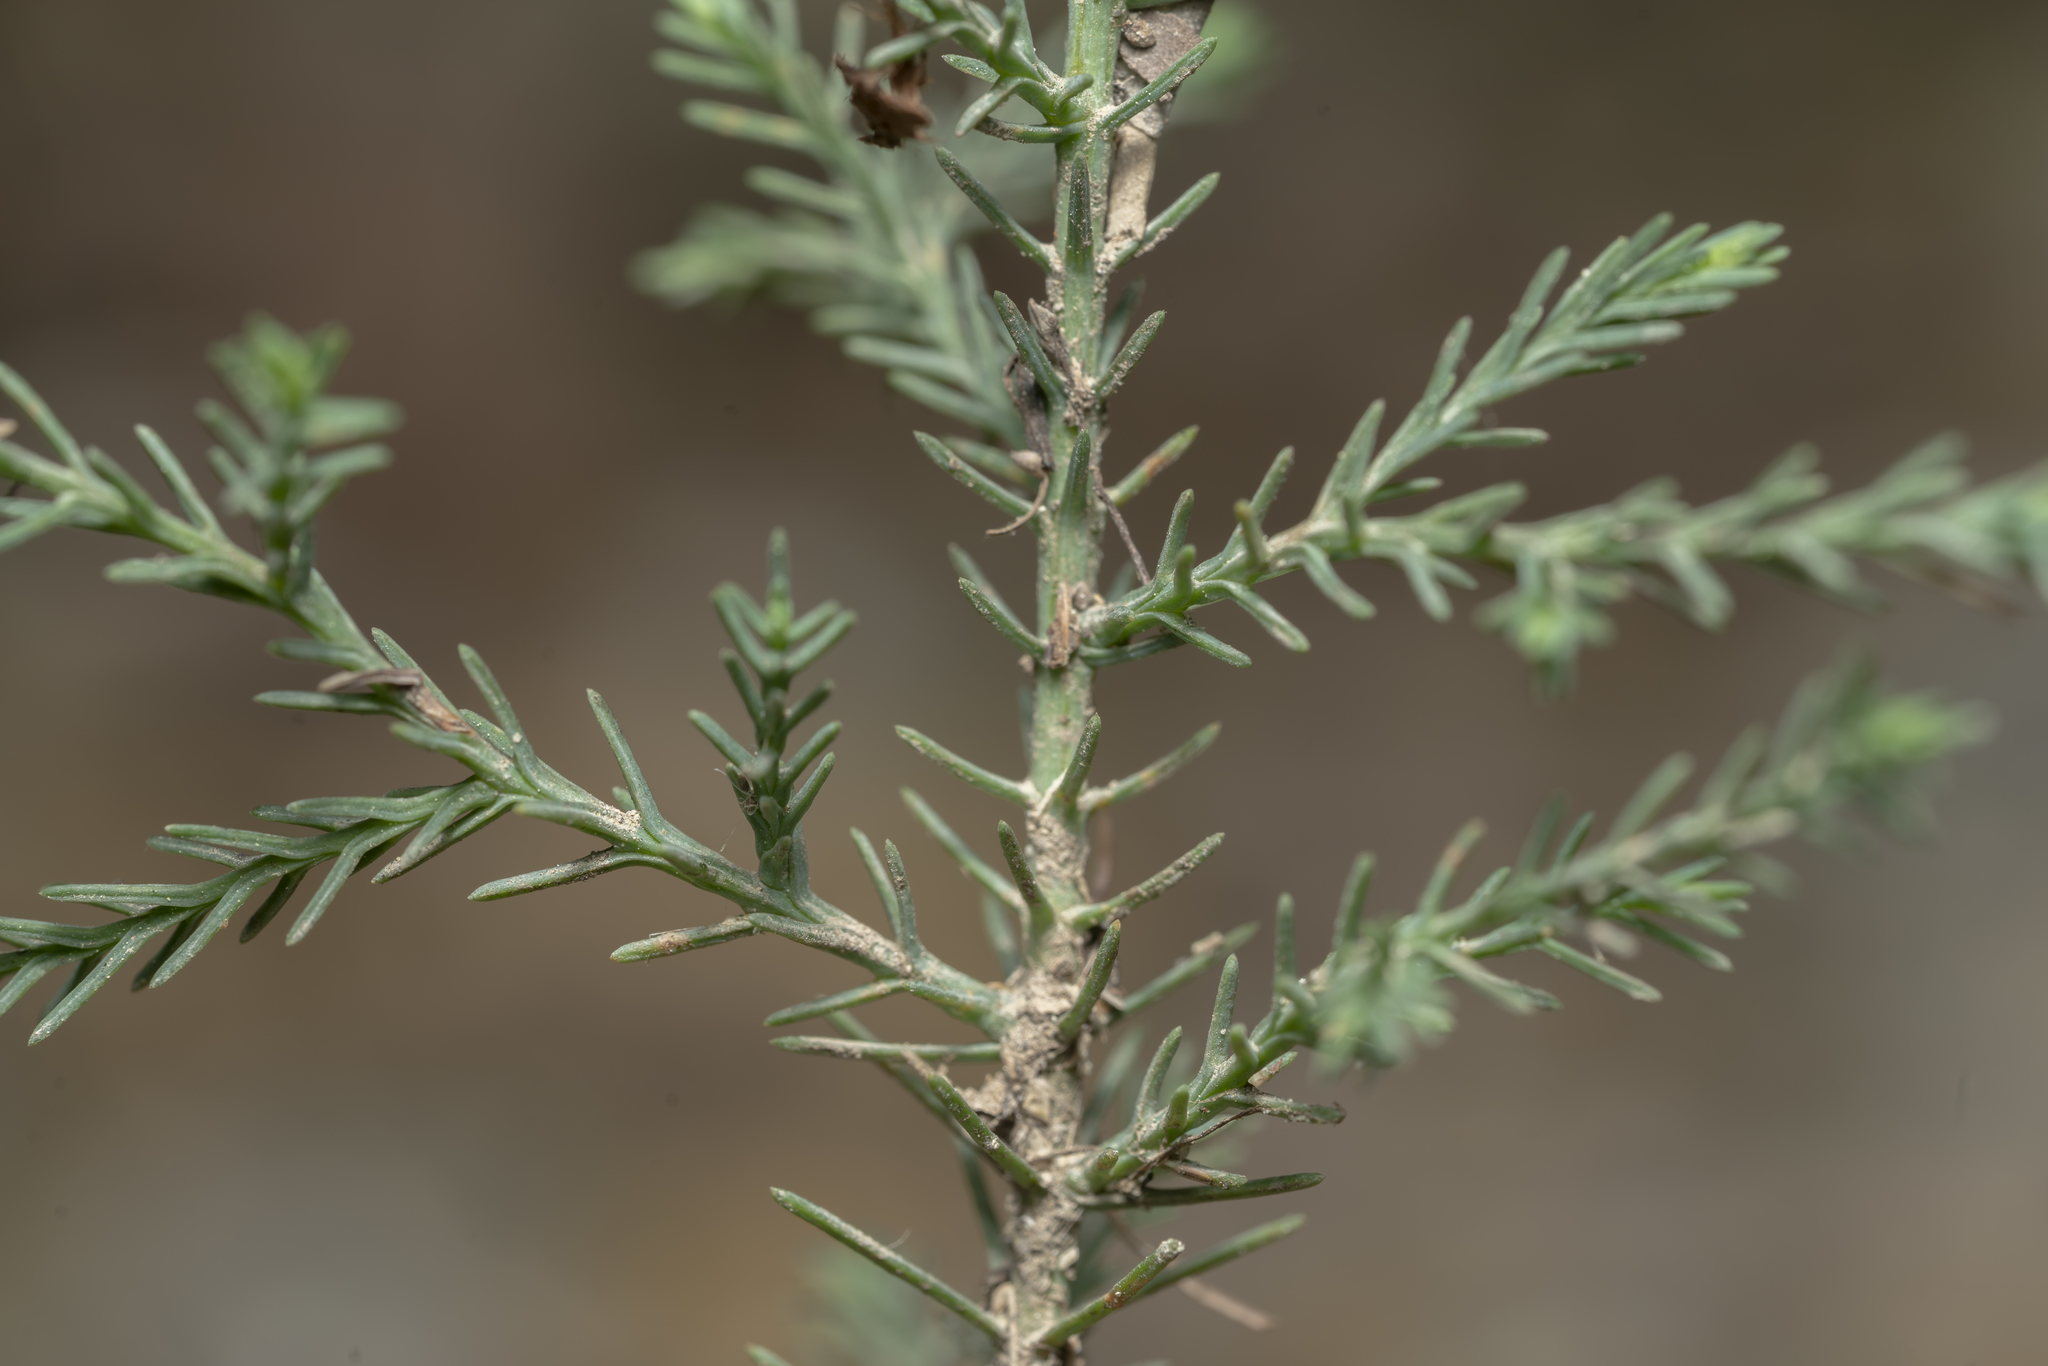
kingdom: Plantae
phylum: Tracheophyta
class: Pinopsida
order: Pinales
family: Cupressaceae
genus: Cupressus
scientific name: Cupressus sempervirens
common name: Italian cypress
